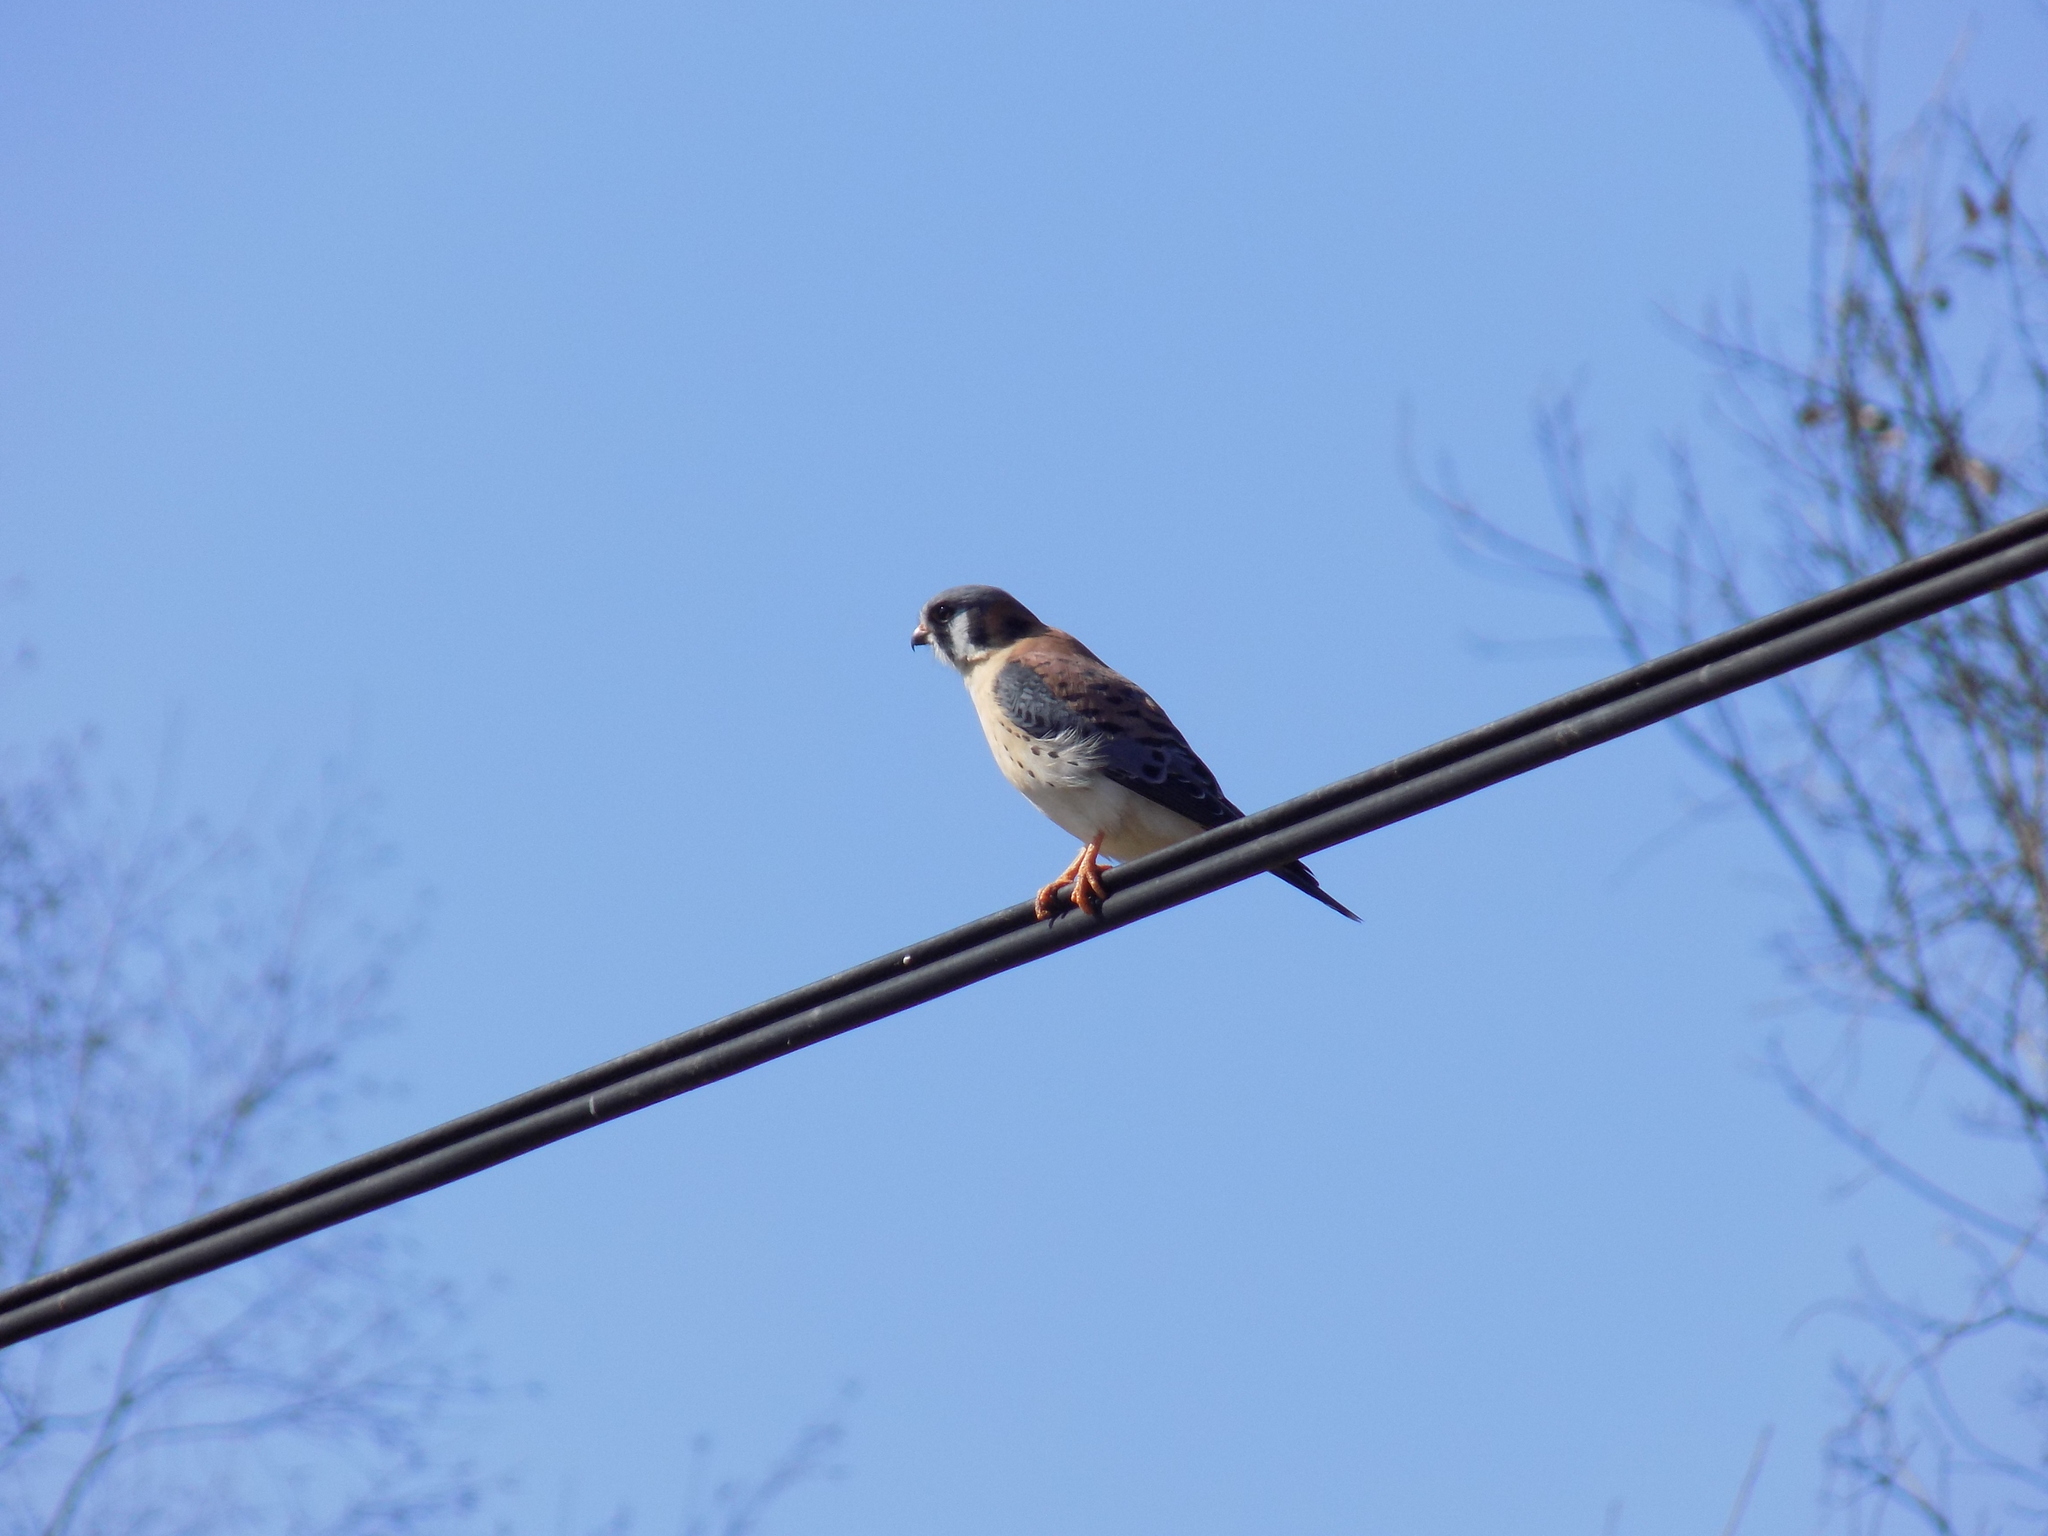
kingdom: Animalia
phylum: Chordata
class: Aves
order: Falconiformes
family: Falconidae
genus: Falco
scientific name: Falco sparverius
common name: American kestrel
